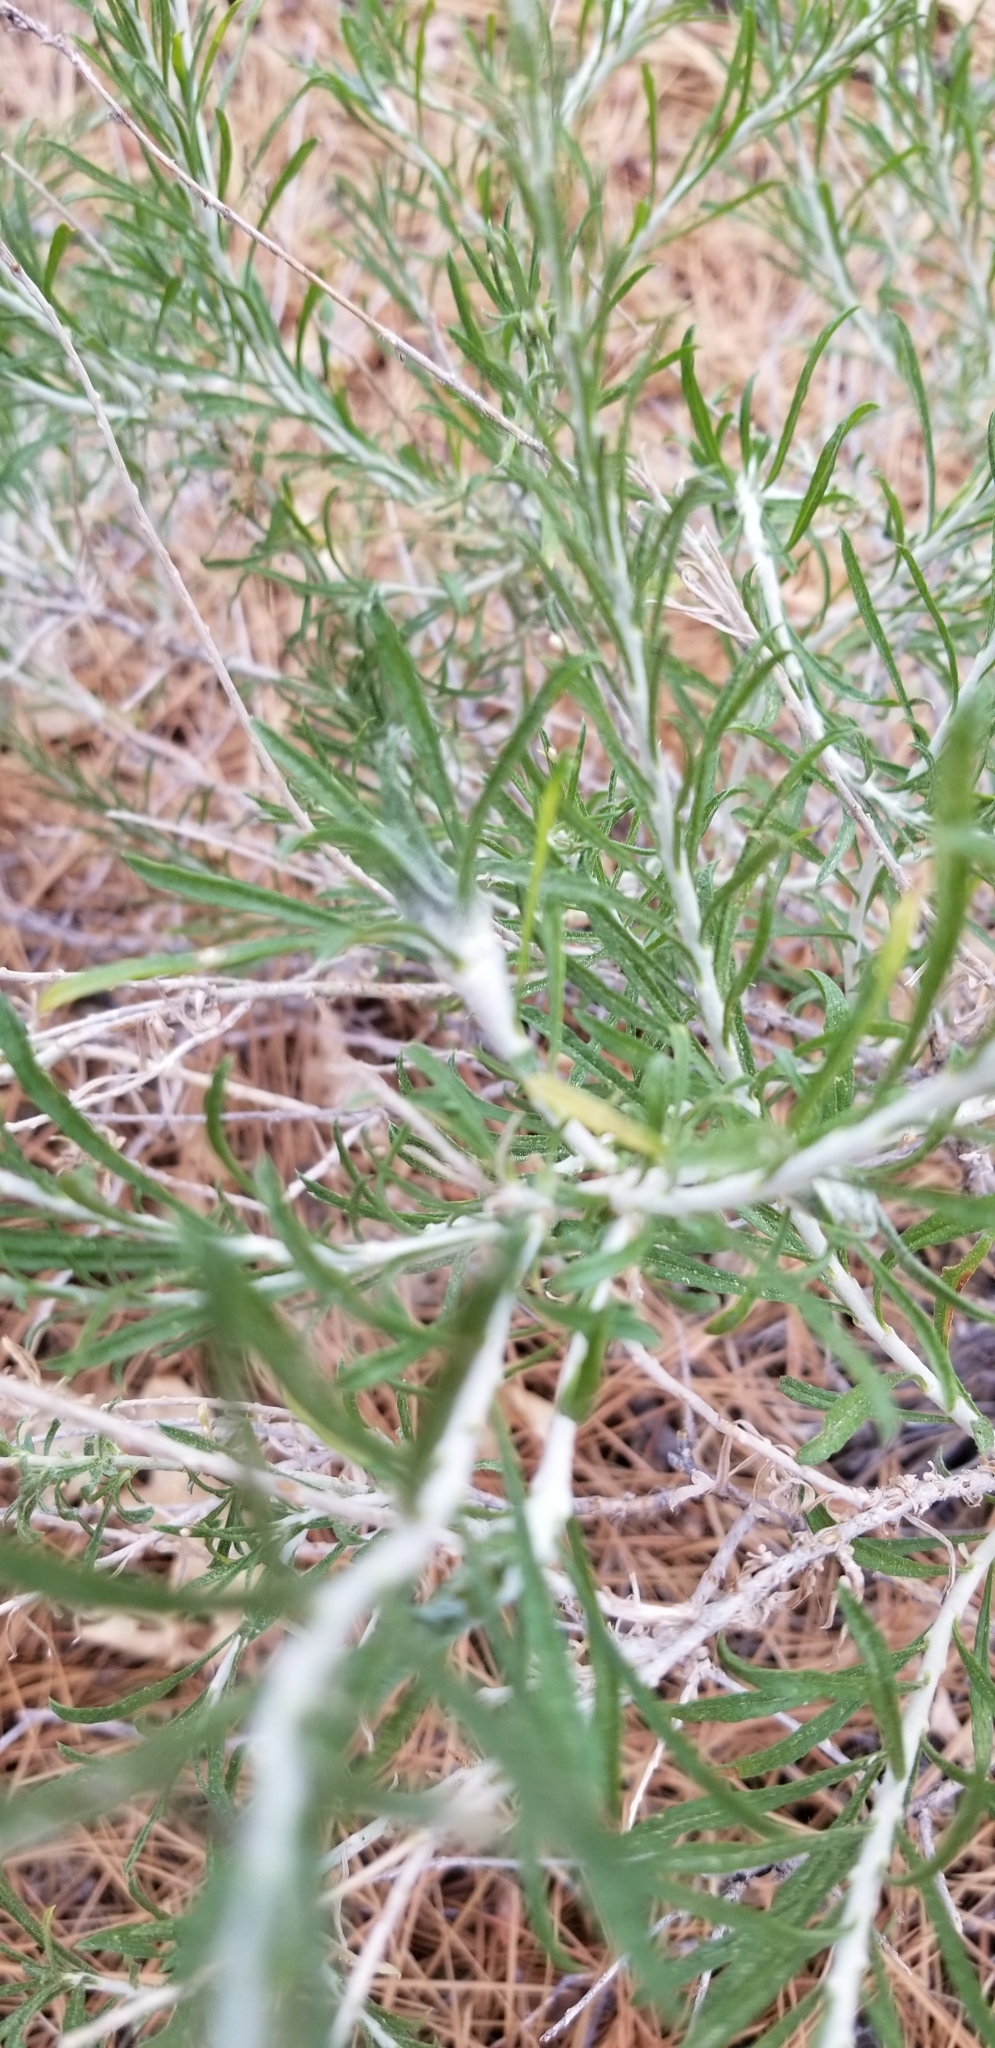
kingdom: Plantae
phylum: Tracheophyta
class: Magnoliopsida
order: Asterales
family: Asteraceae
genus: Ericameria
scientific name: Ericameria nauseosa
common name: Rubber rabbitbrush
